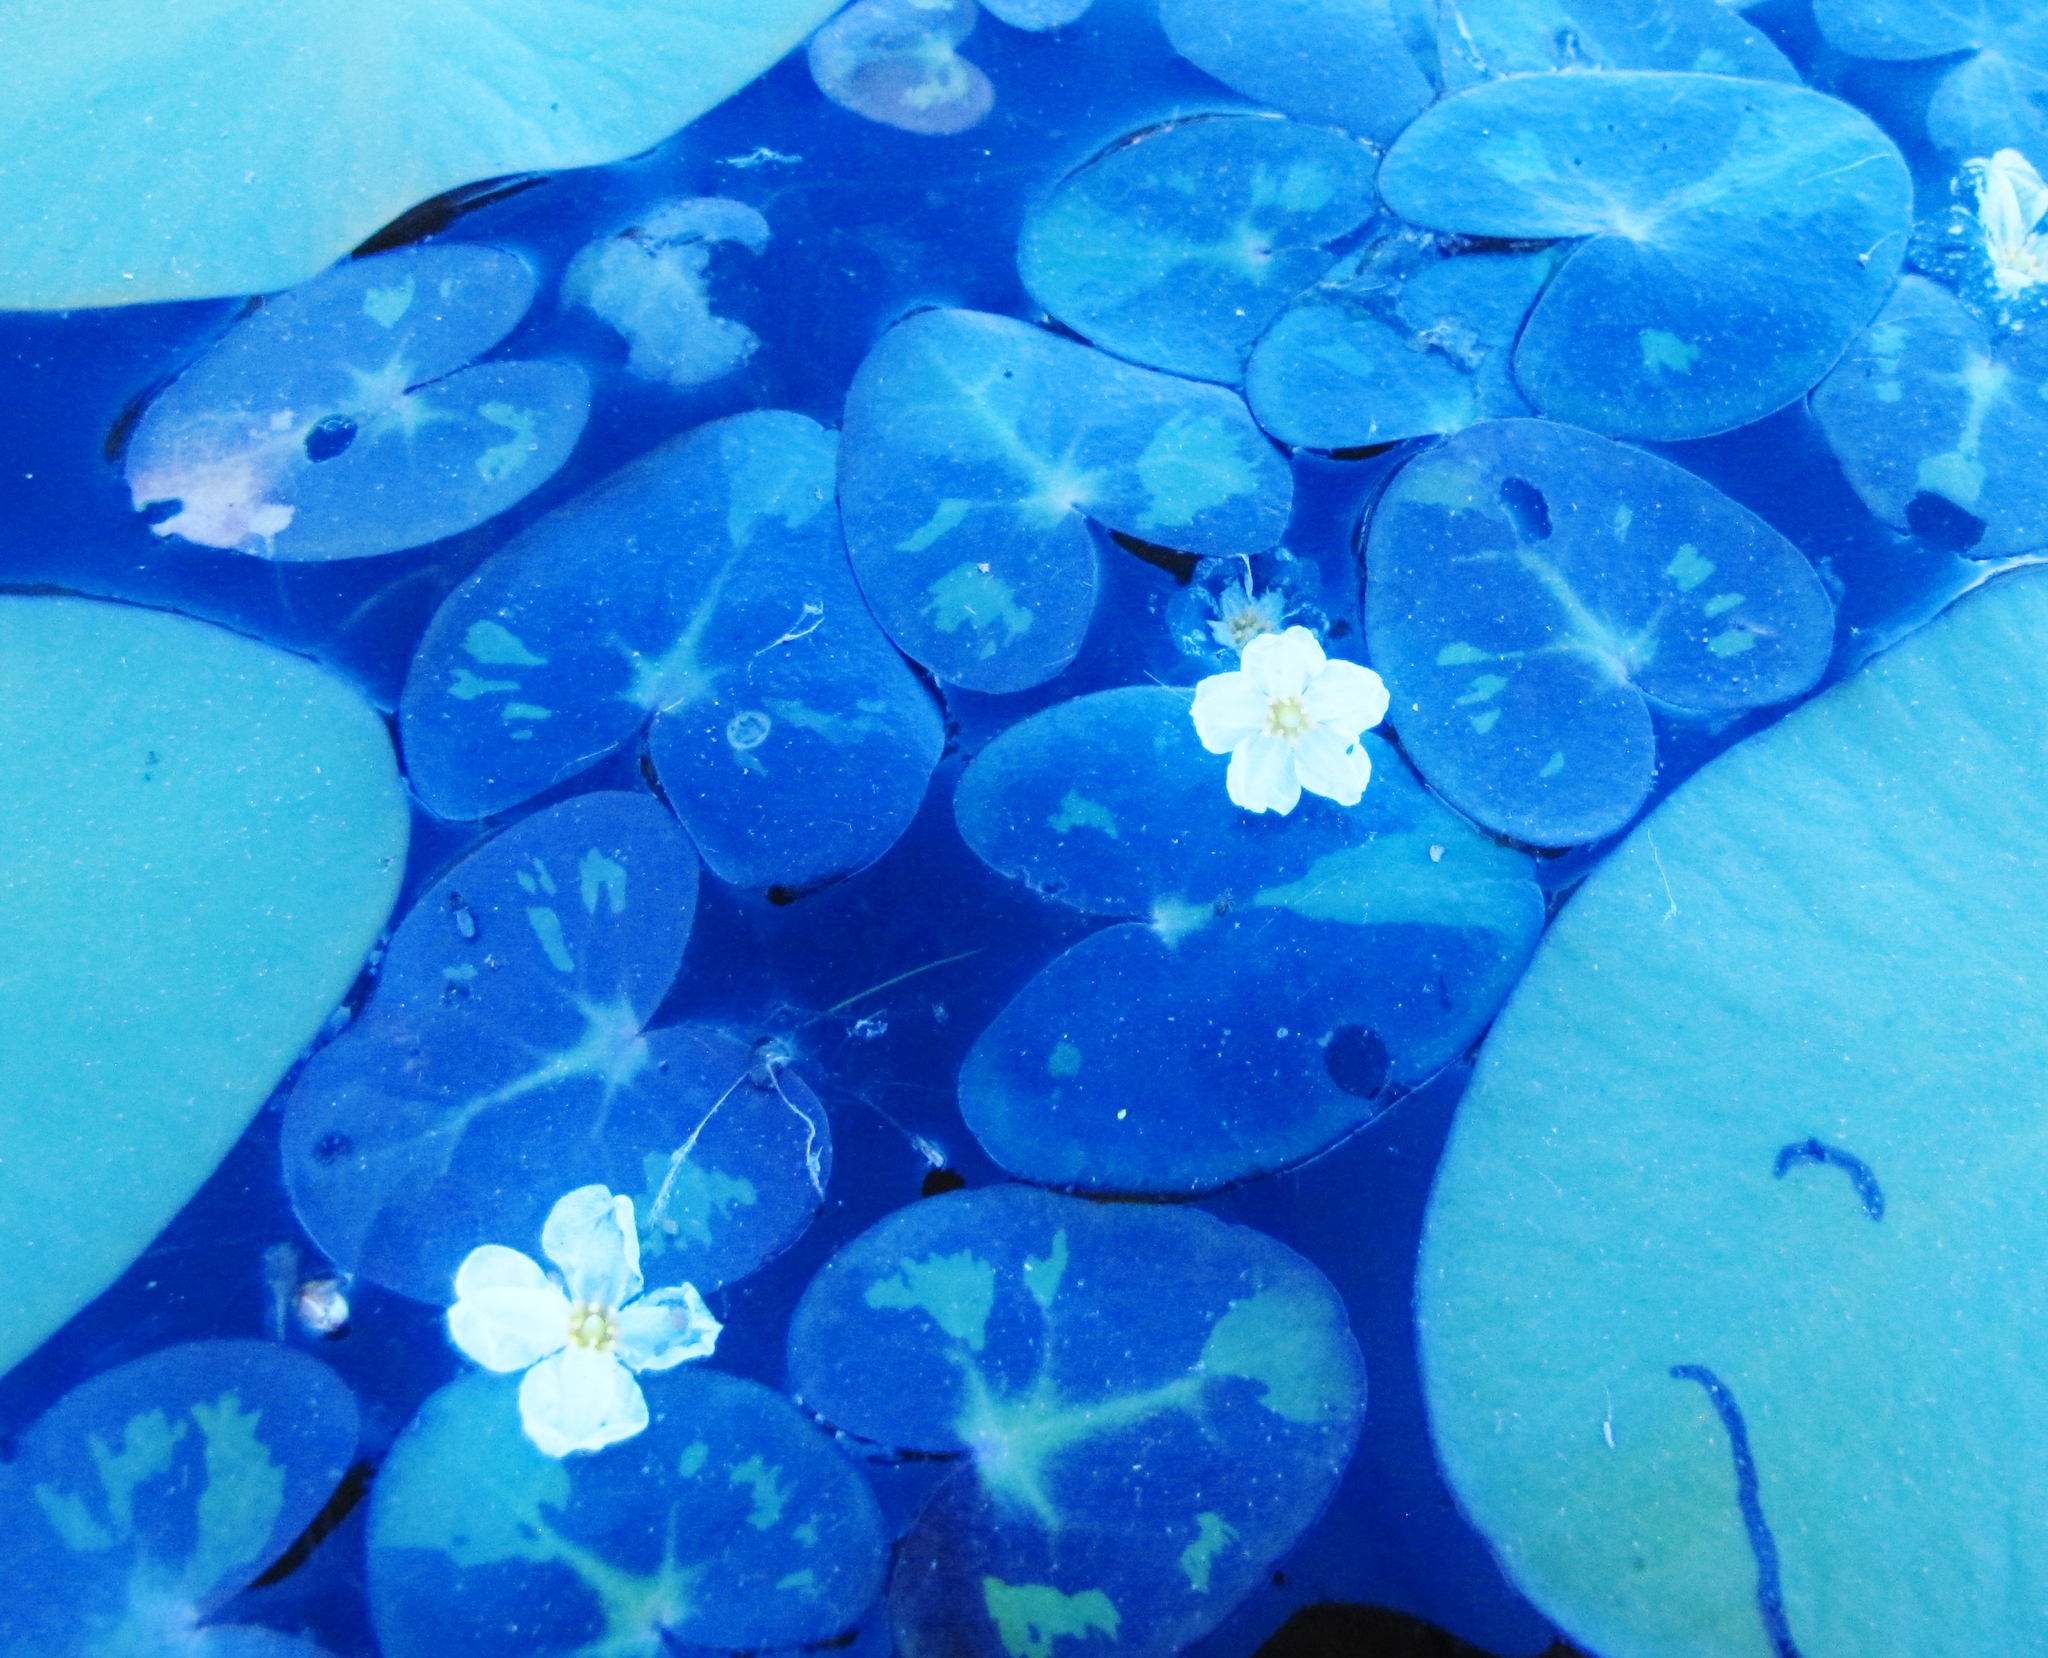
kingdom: Plantae
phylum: Tracheophyta
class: Magnoliopsida
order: Asterales
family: Menyanthaceae
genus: Nymphoides
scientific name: Nymphoides cordata
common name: Eight-angled floatingheart
